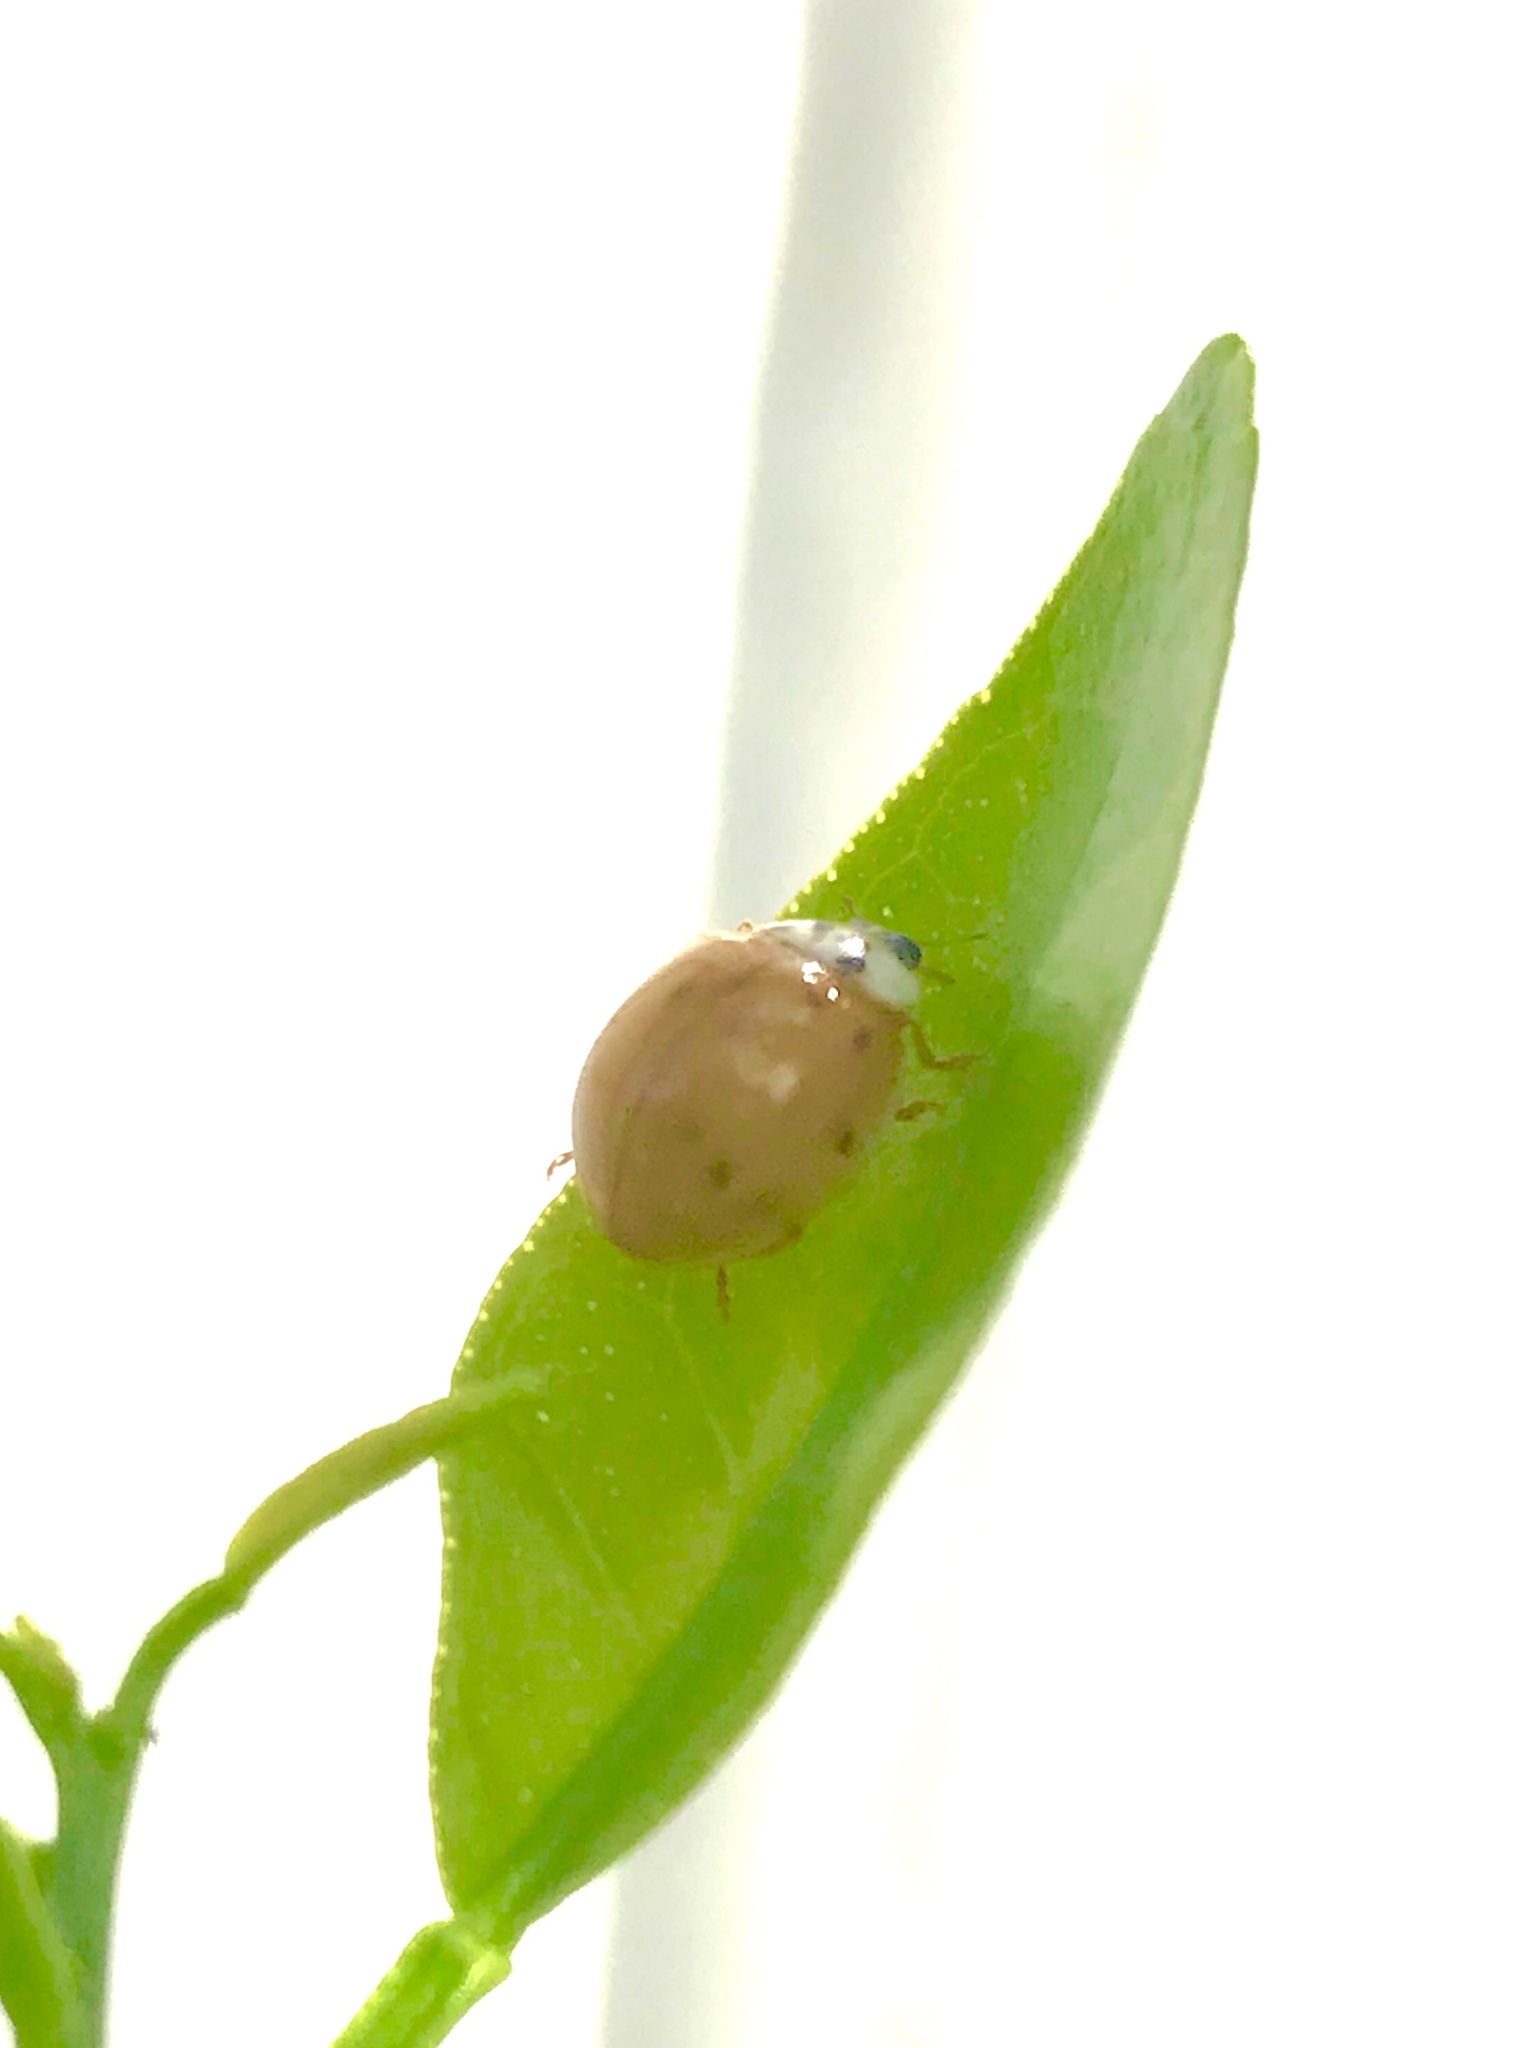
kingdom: Animalia
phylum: Arthropoda
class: Insecta
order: Coleoptera
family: Coccinellidae
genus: Harmonia
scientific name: Harmonia axyridis
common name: Harlequin ladybird
